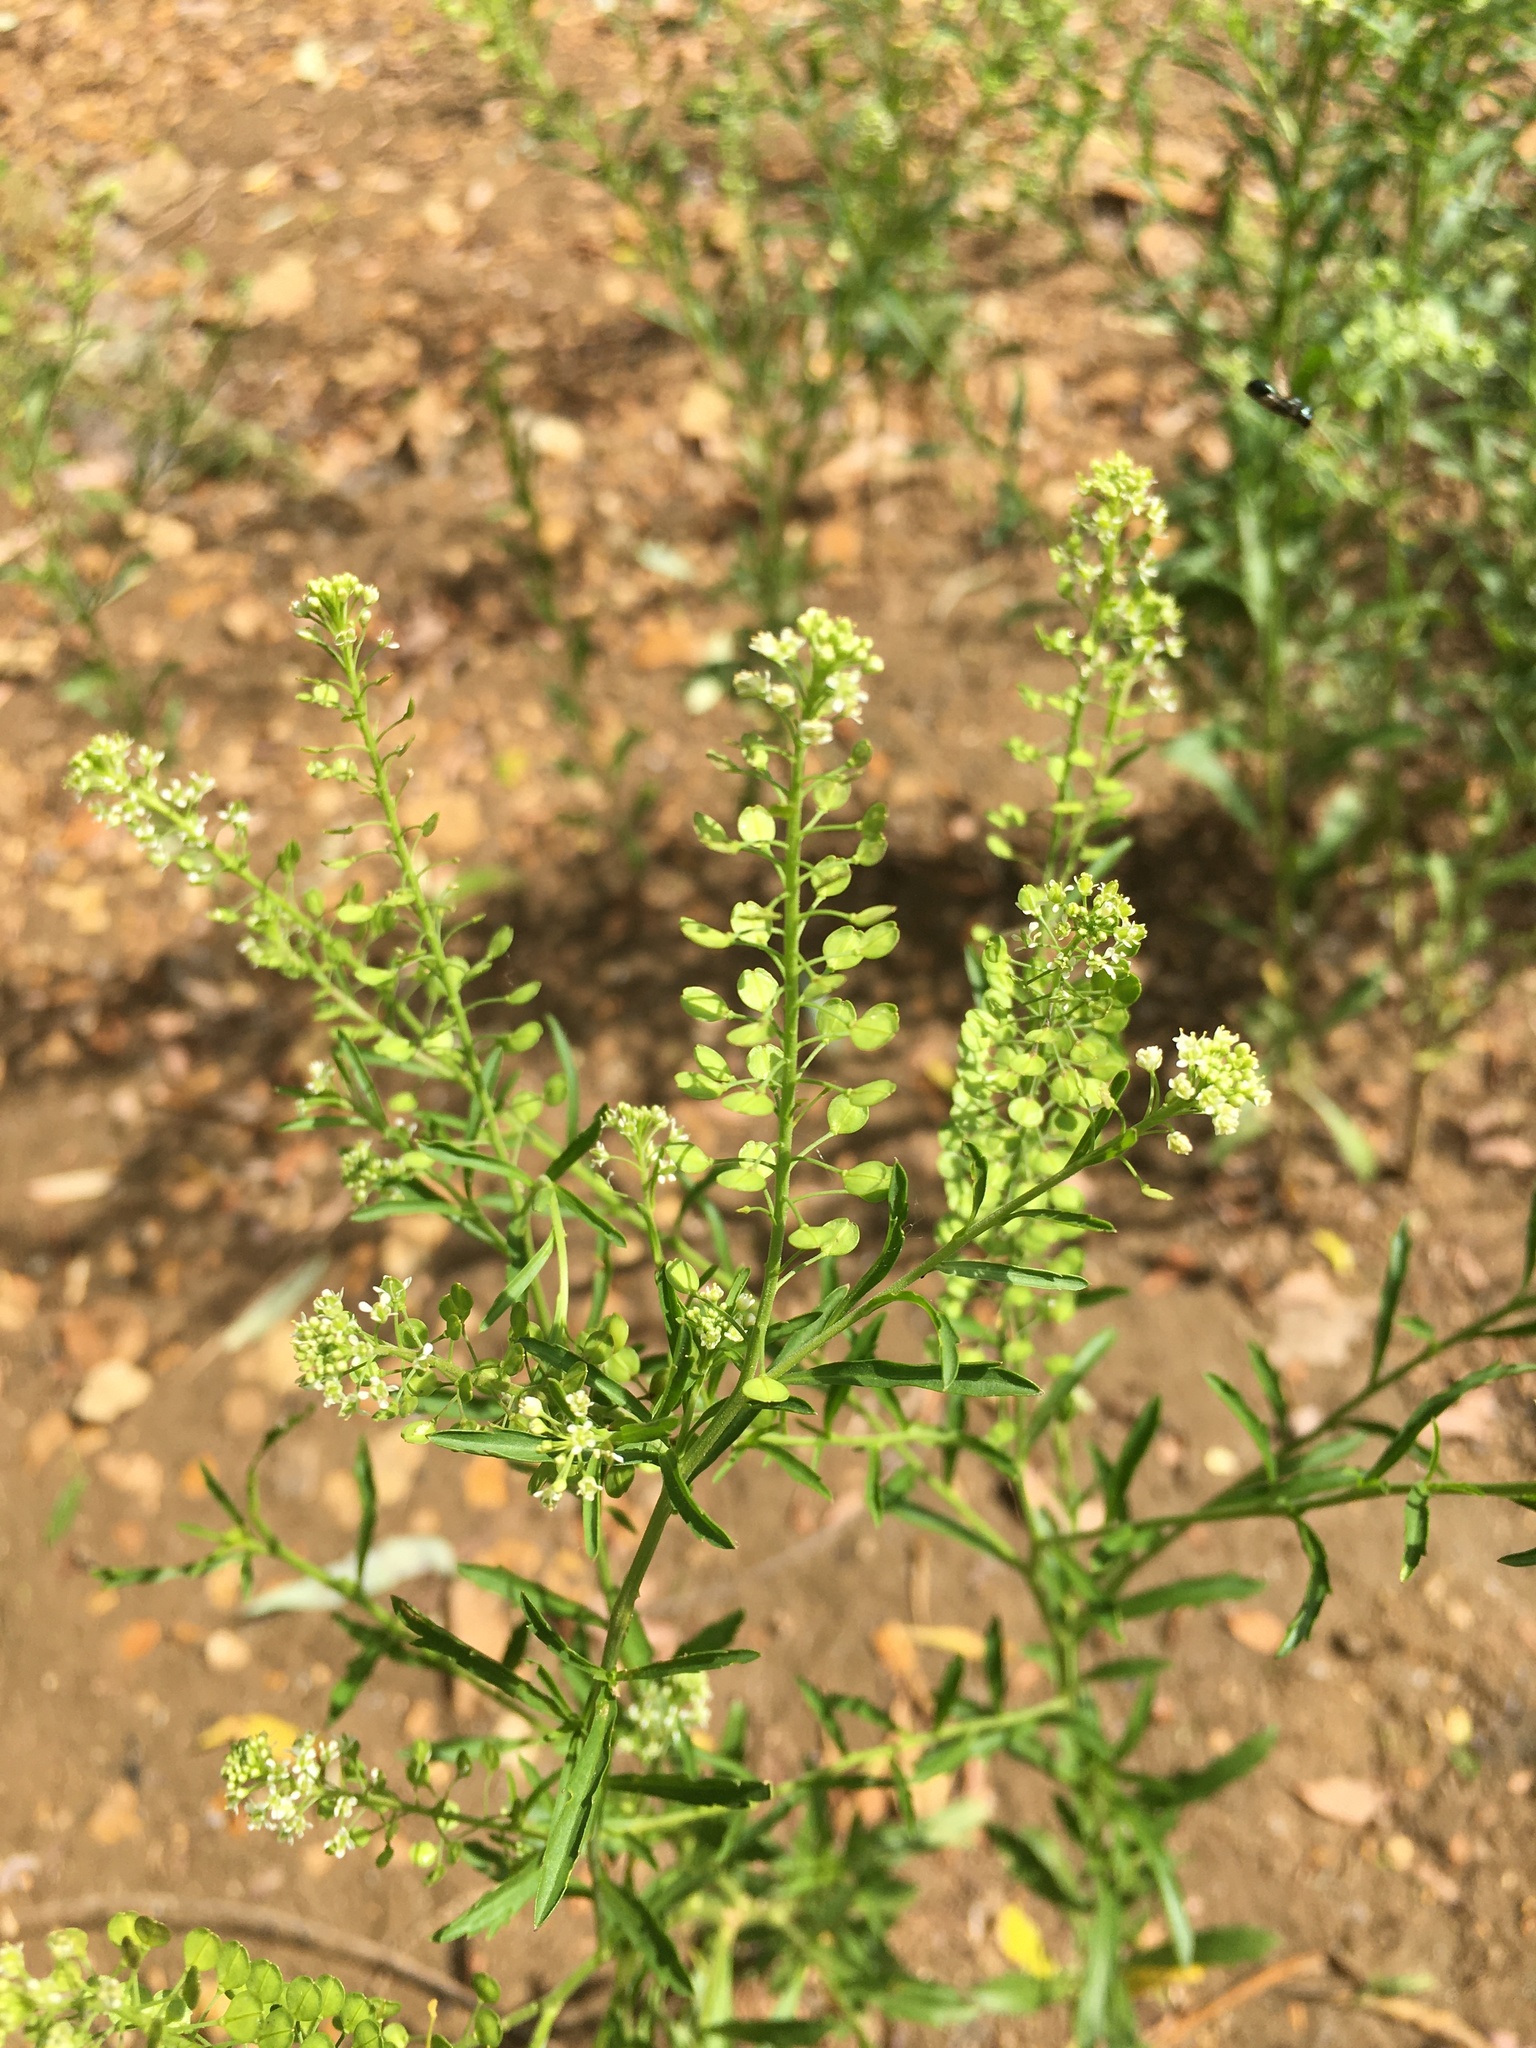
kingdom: Plantae
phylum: Tracheophyta
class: Magnoliopsida
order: Brassicales
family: Brassicaceae
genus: Lepidium
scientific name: Lepidium virginicum
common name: Least pepperwort
